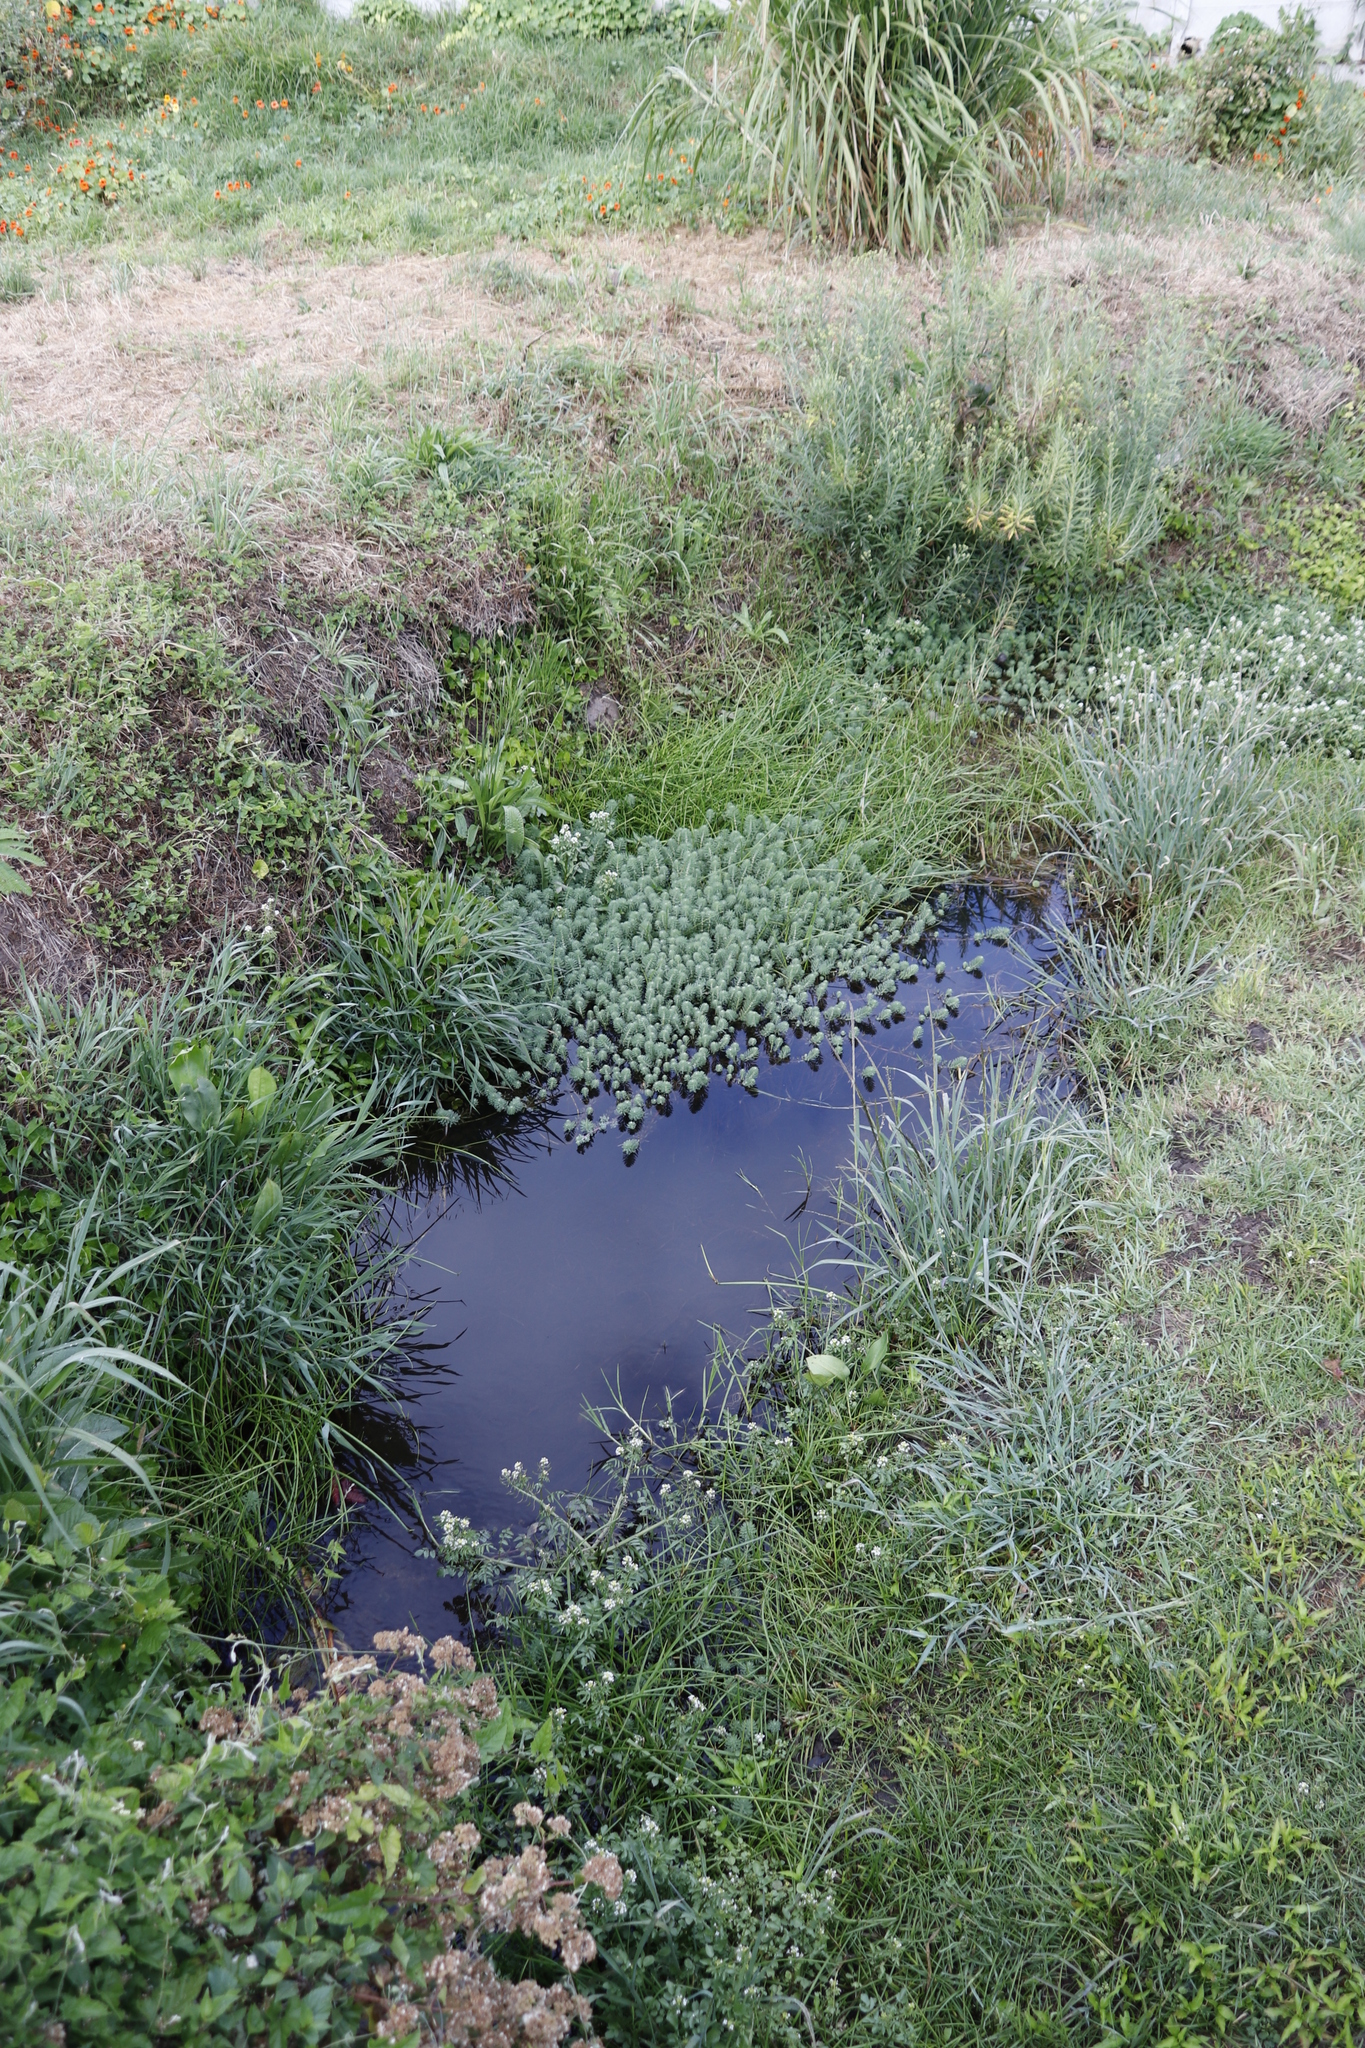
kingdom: Plantae
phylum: Tracheophyta
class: Magnoliopsida
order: Saxifragales
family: Haloragaceae
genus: Myriophyllum
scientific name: Myriophyllum aquaticum
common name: Parrot's feather
